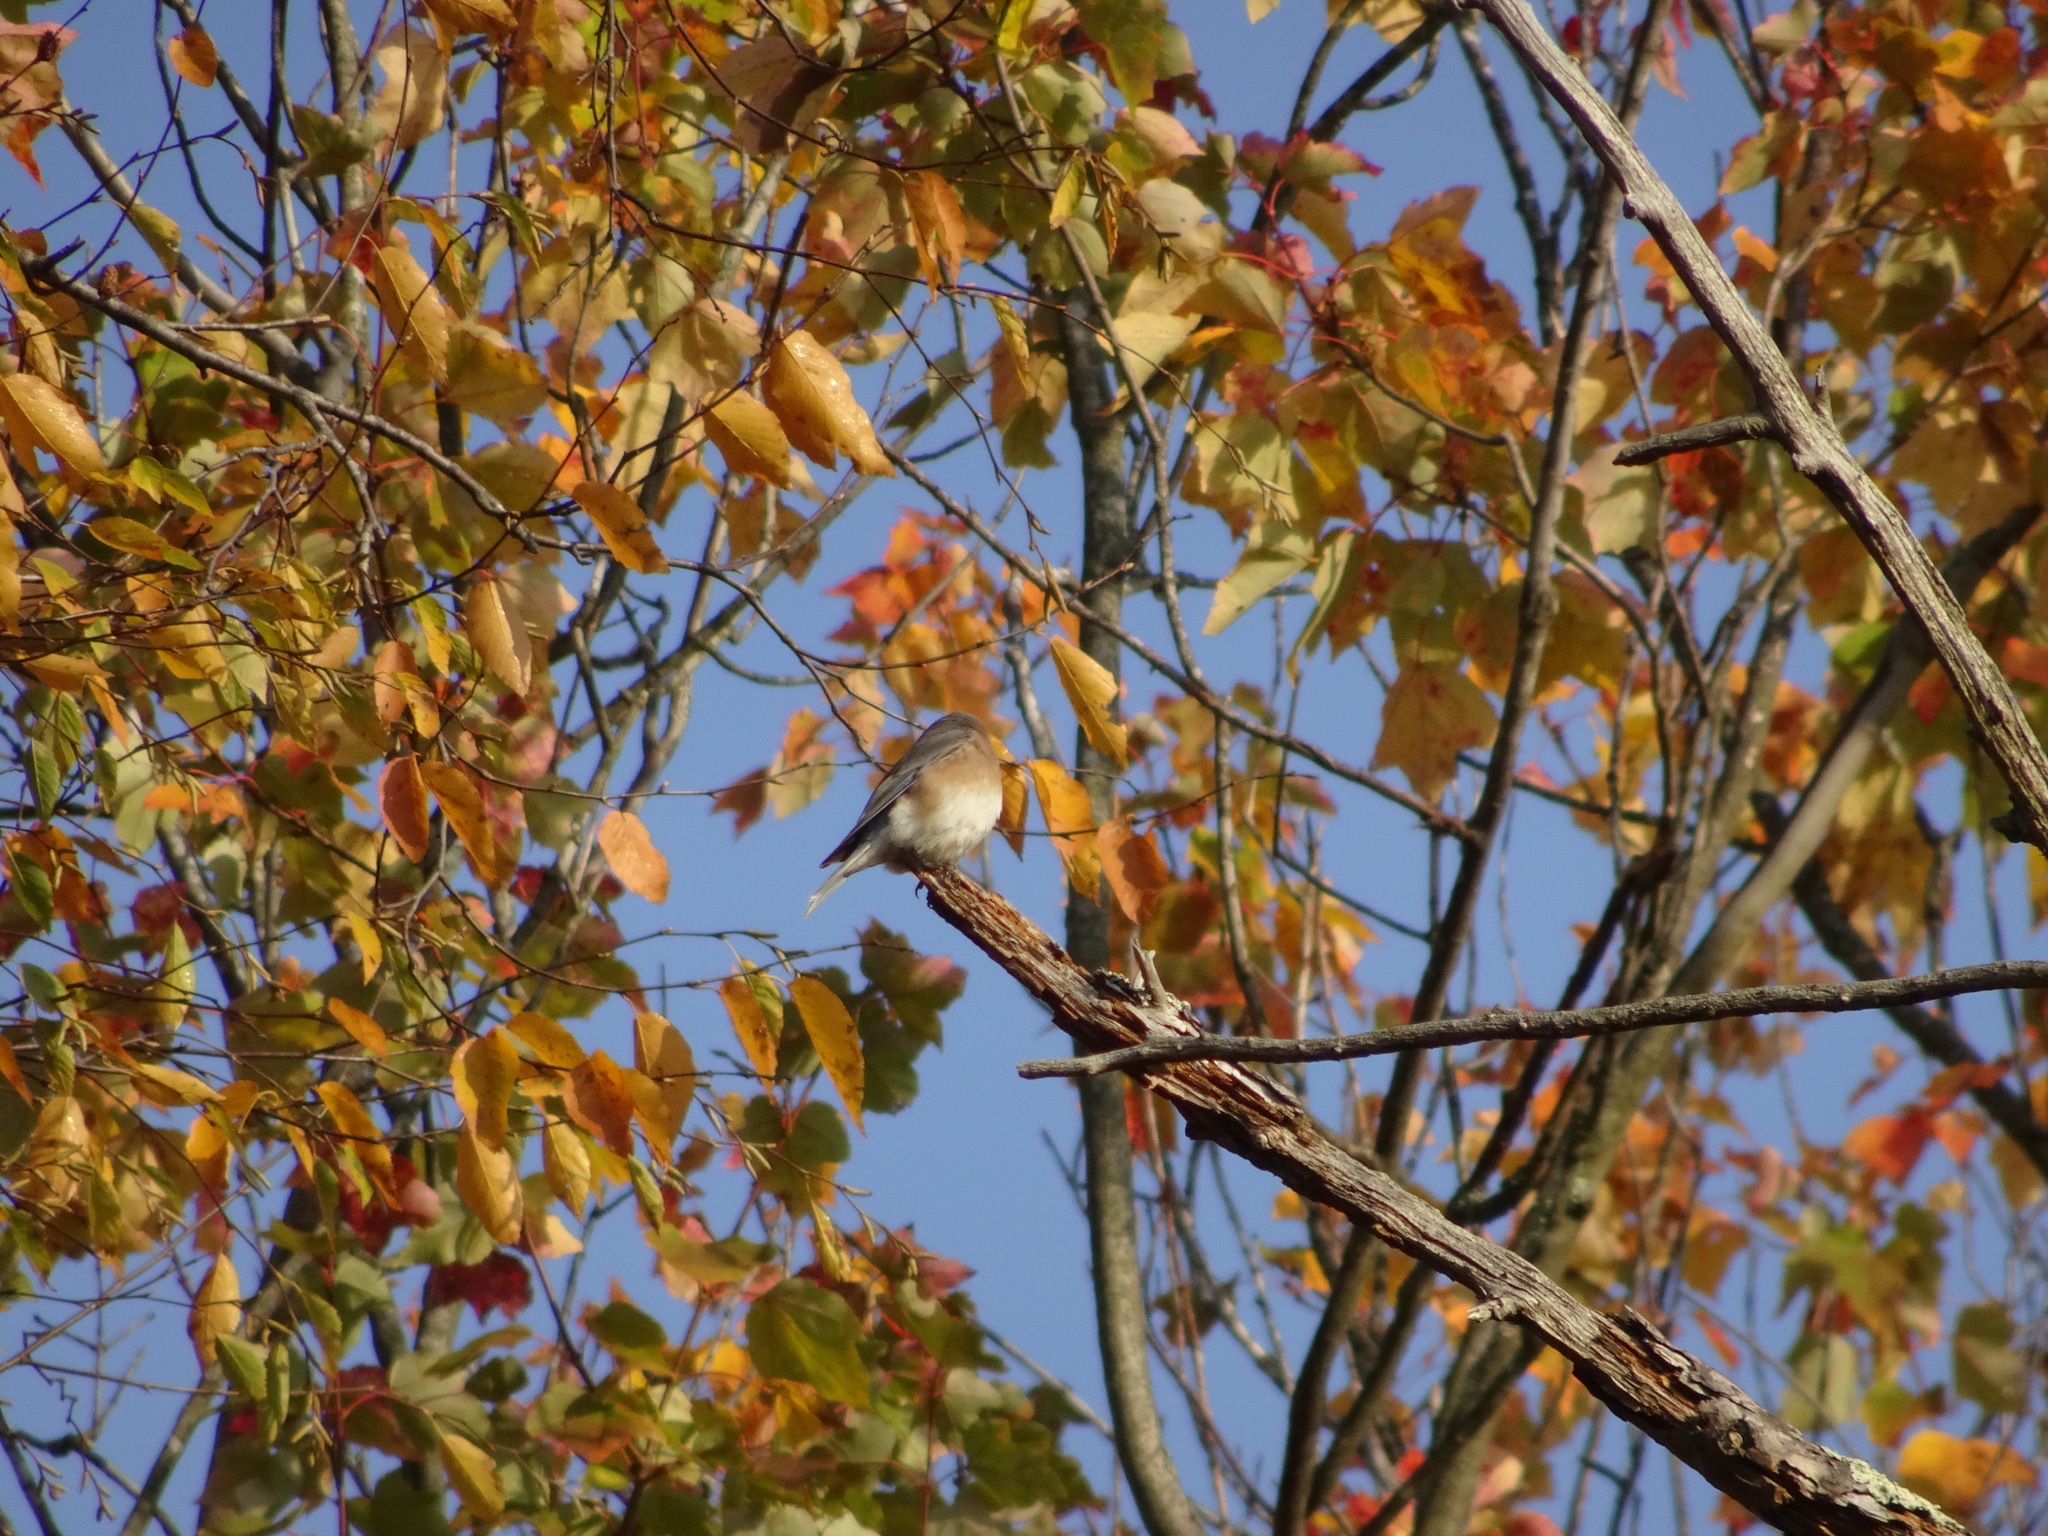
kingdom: Animalia
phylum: Chordata
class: Aves
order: Passeriformes
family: Turdidae
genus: Sialia
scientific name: Sialia sialis
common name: Eastern bluebird
